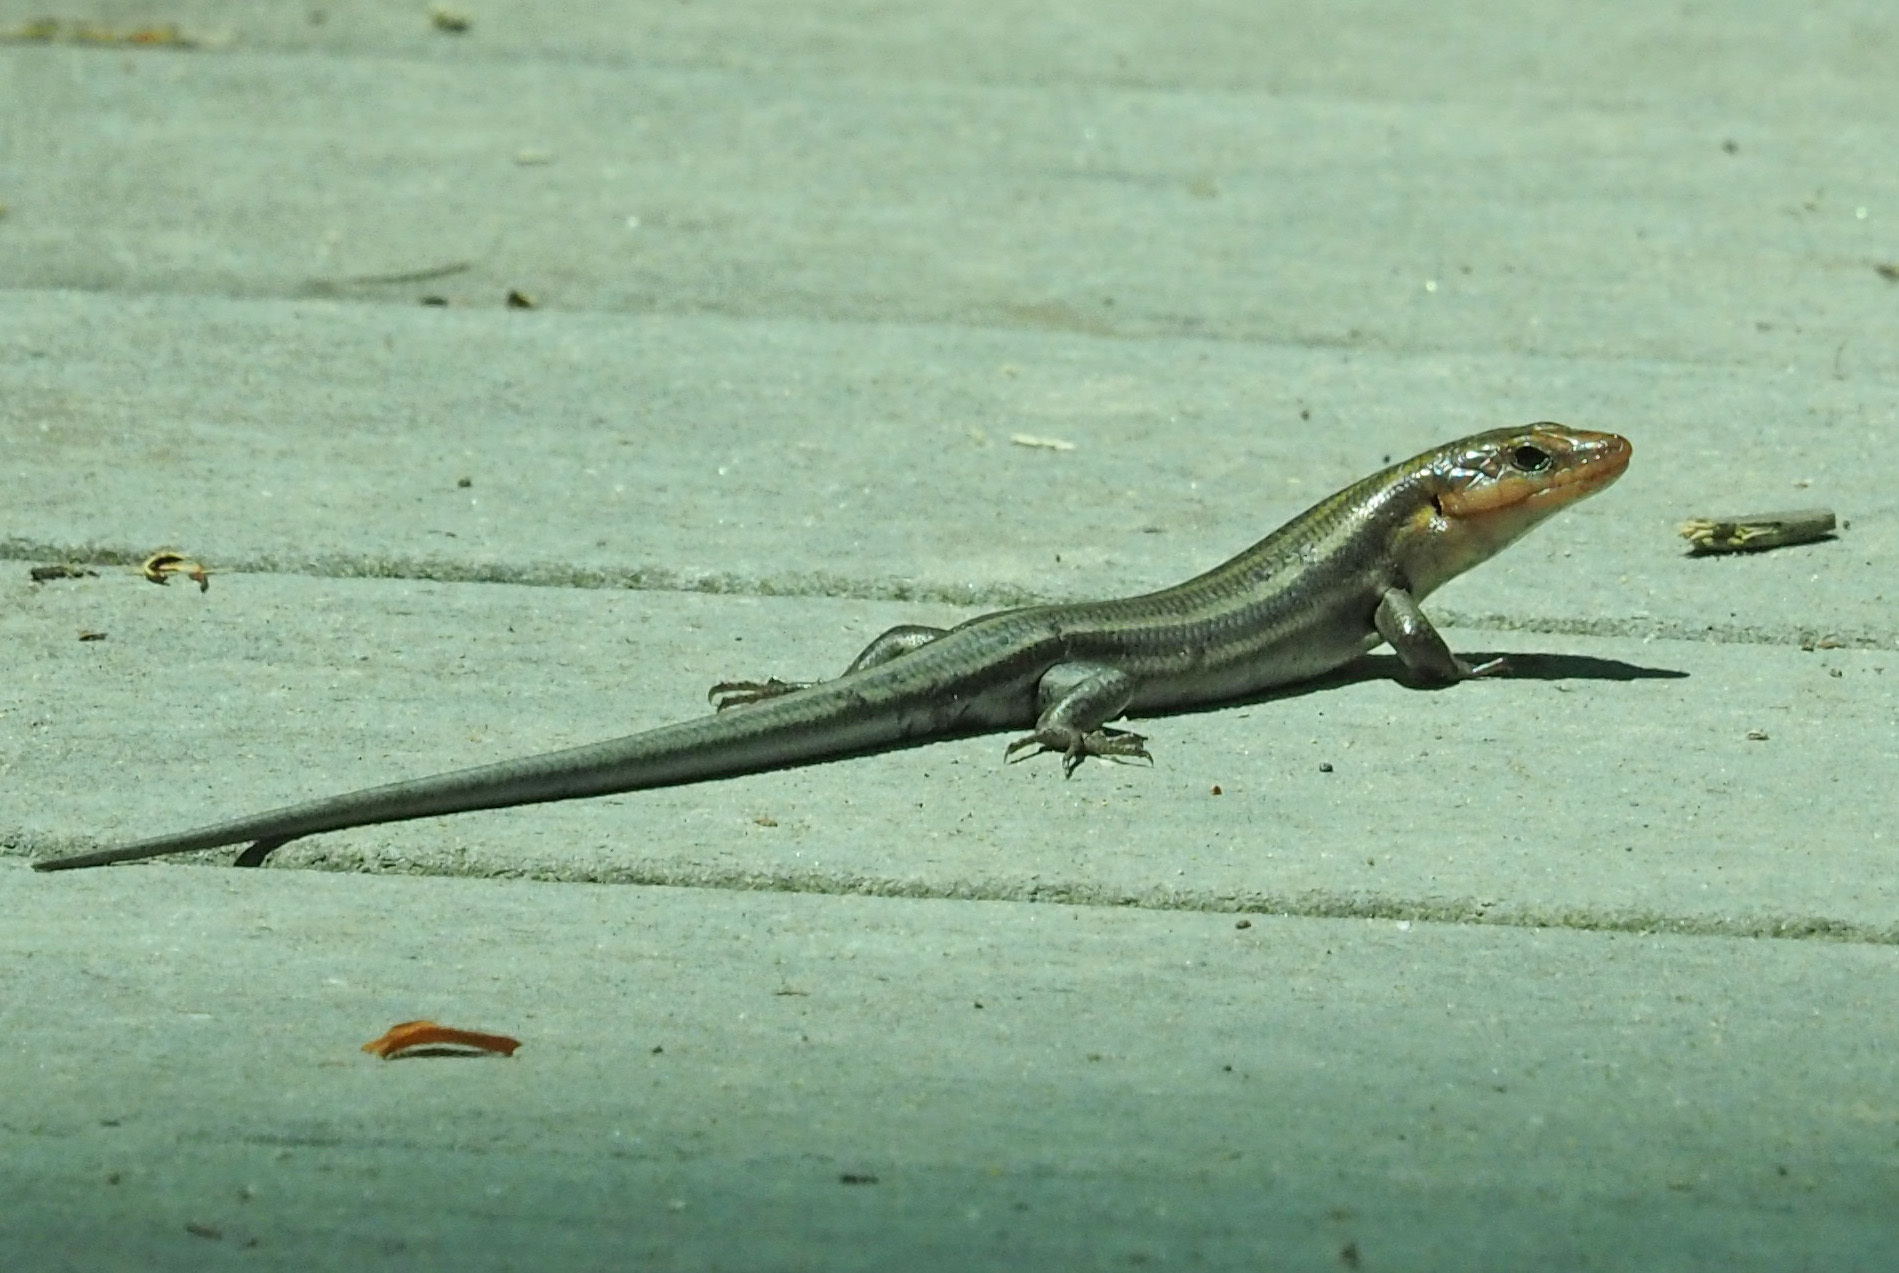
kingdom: Animalia
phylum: Chordata
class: Squamata
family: Scincidae
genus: Plestiodon
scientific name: Plestiodon fasciatus
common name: Five-lined skink
